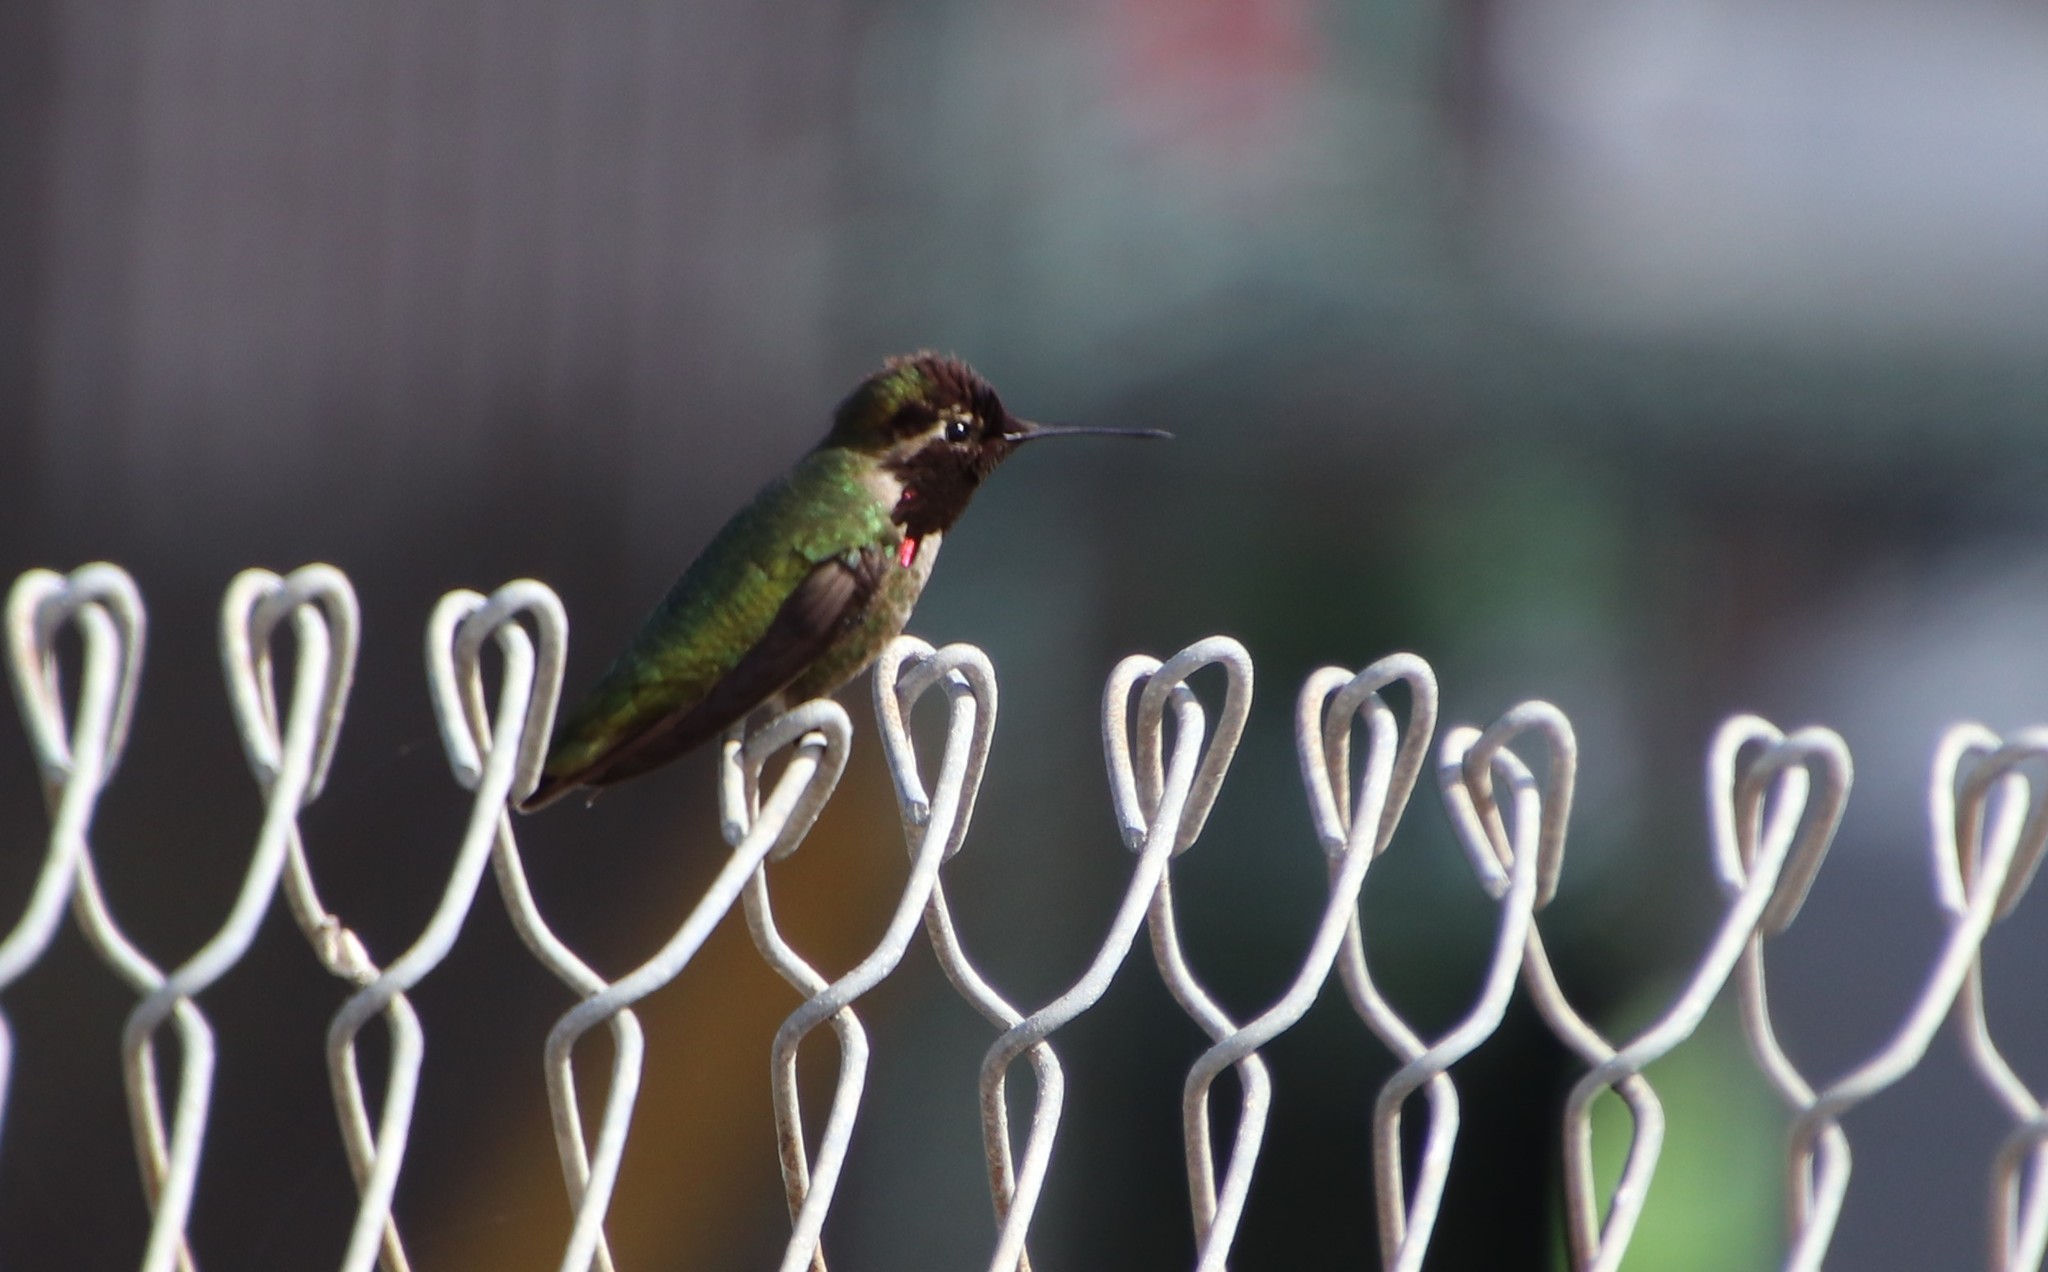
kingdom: Animalia
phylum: Chordata
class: Aves
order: Apodiformes
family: Trochilidae
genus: Calypte
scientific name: Calypte anna
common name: Anna's hummingbird
